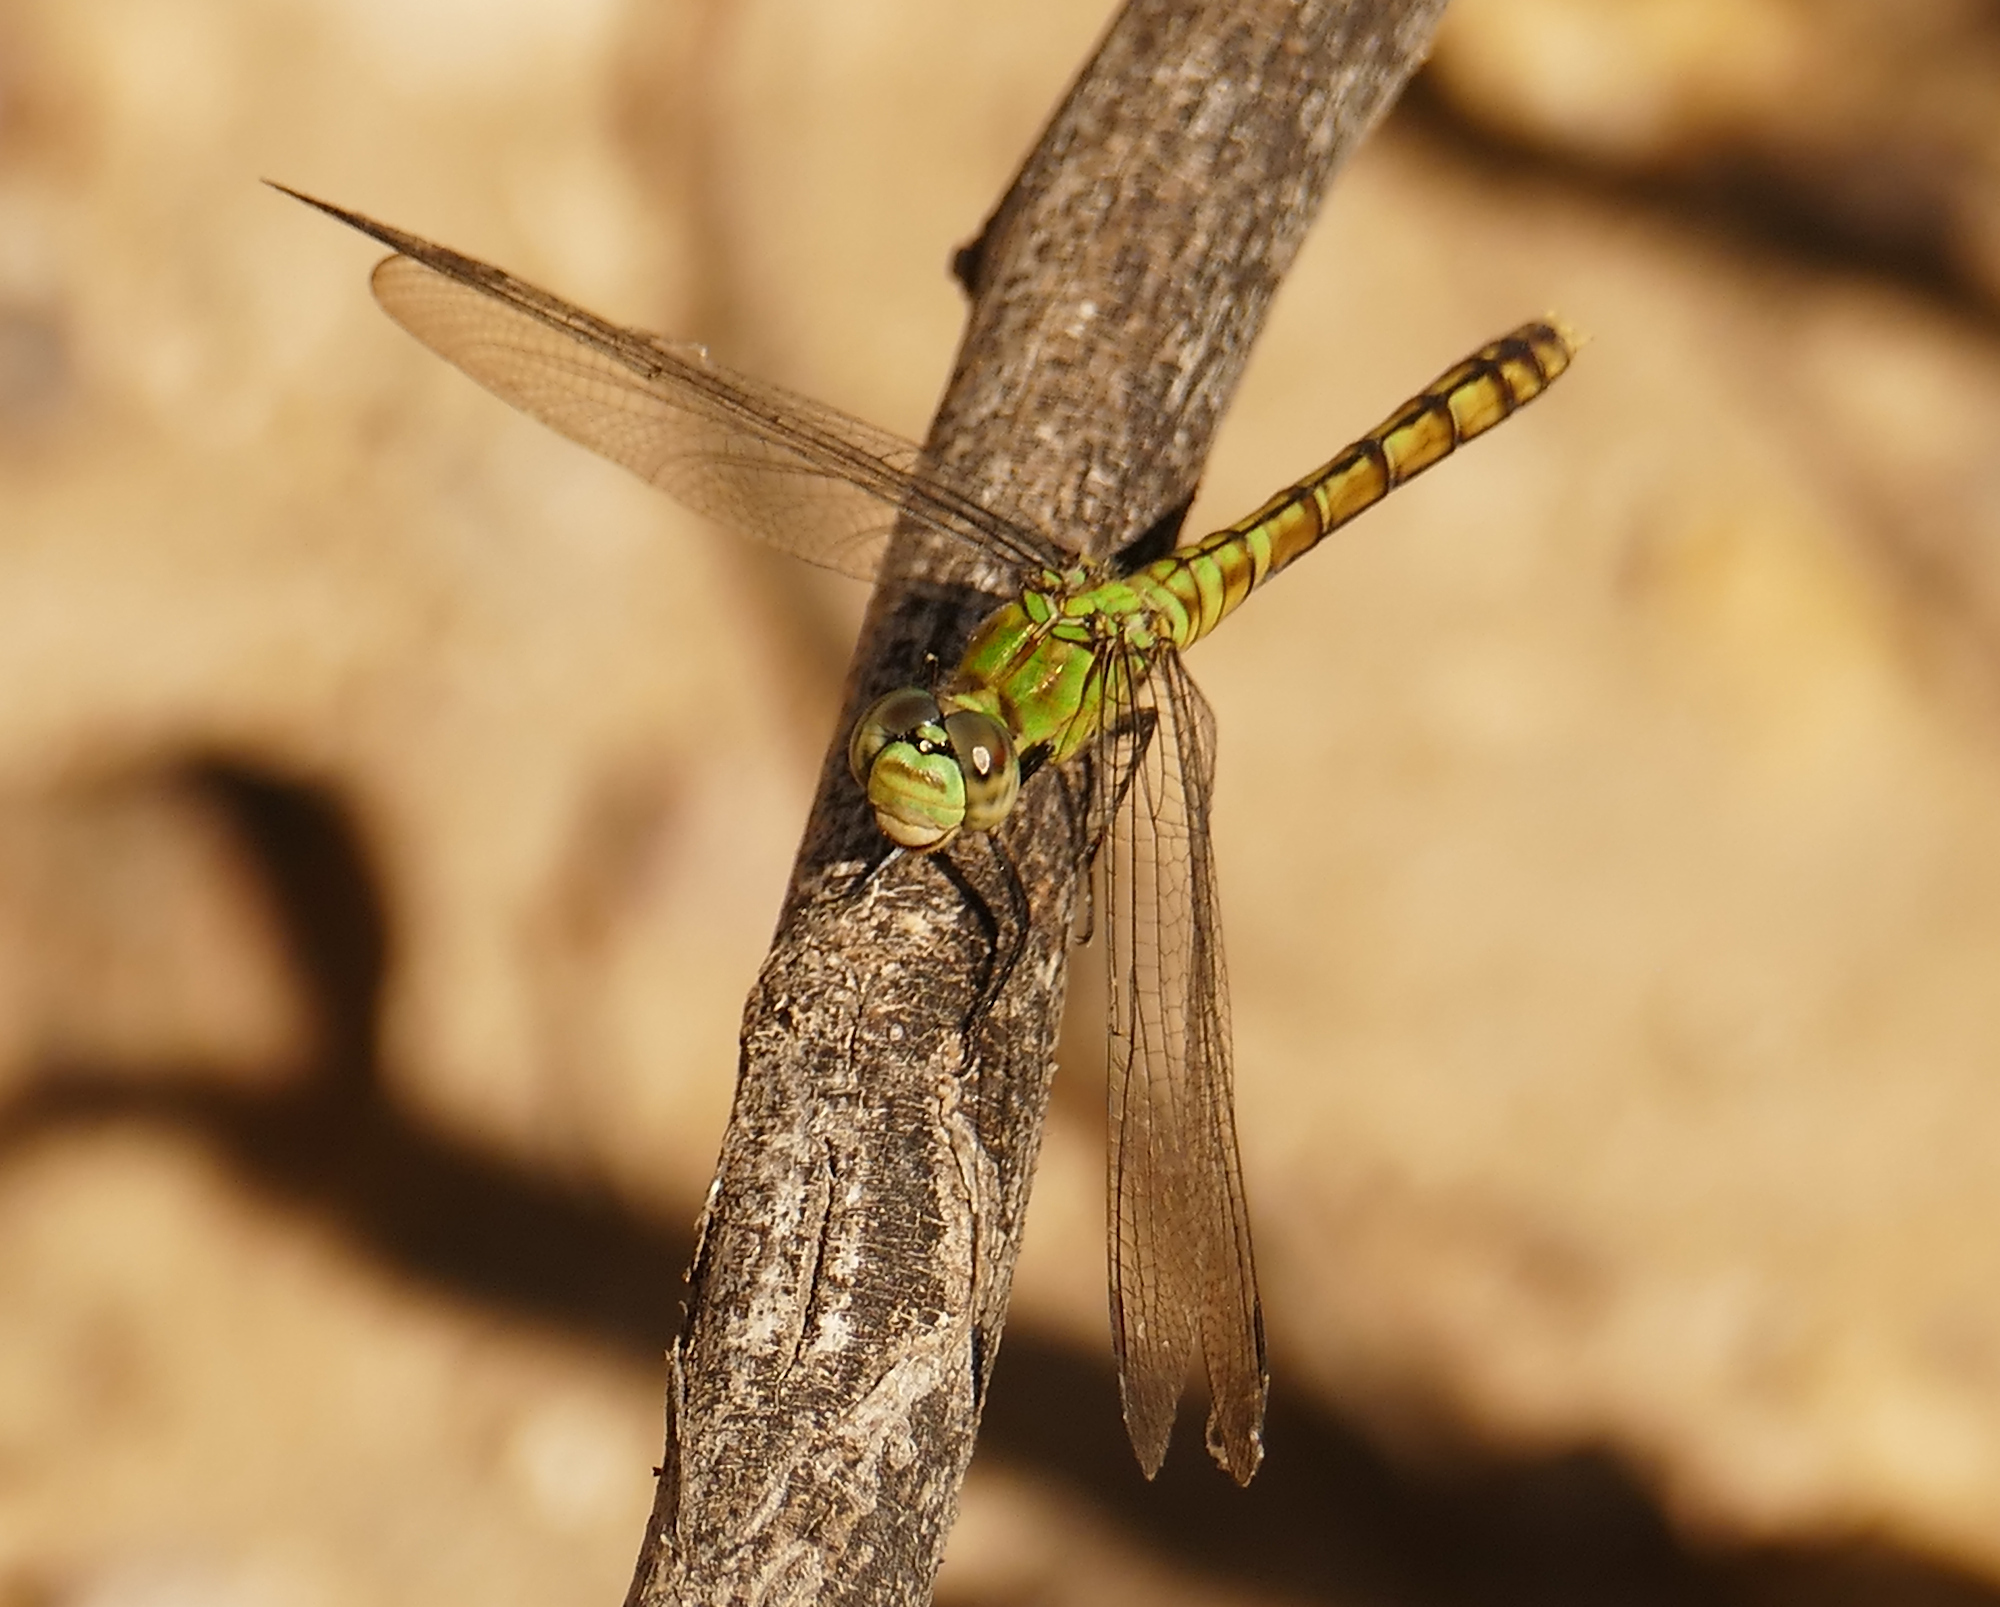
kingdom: Animalia
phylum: Arthropoda
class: Insecta
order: Odonata
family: Libellulidae
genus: Erythemis
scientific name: Erythemis collocata
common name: Western pondhawk
